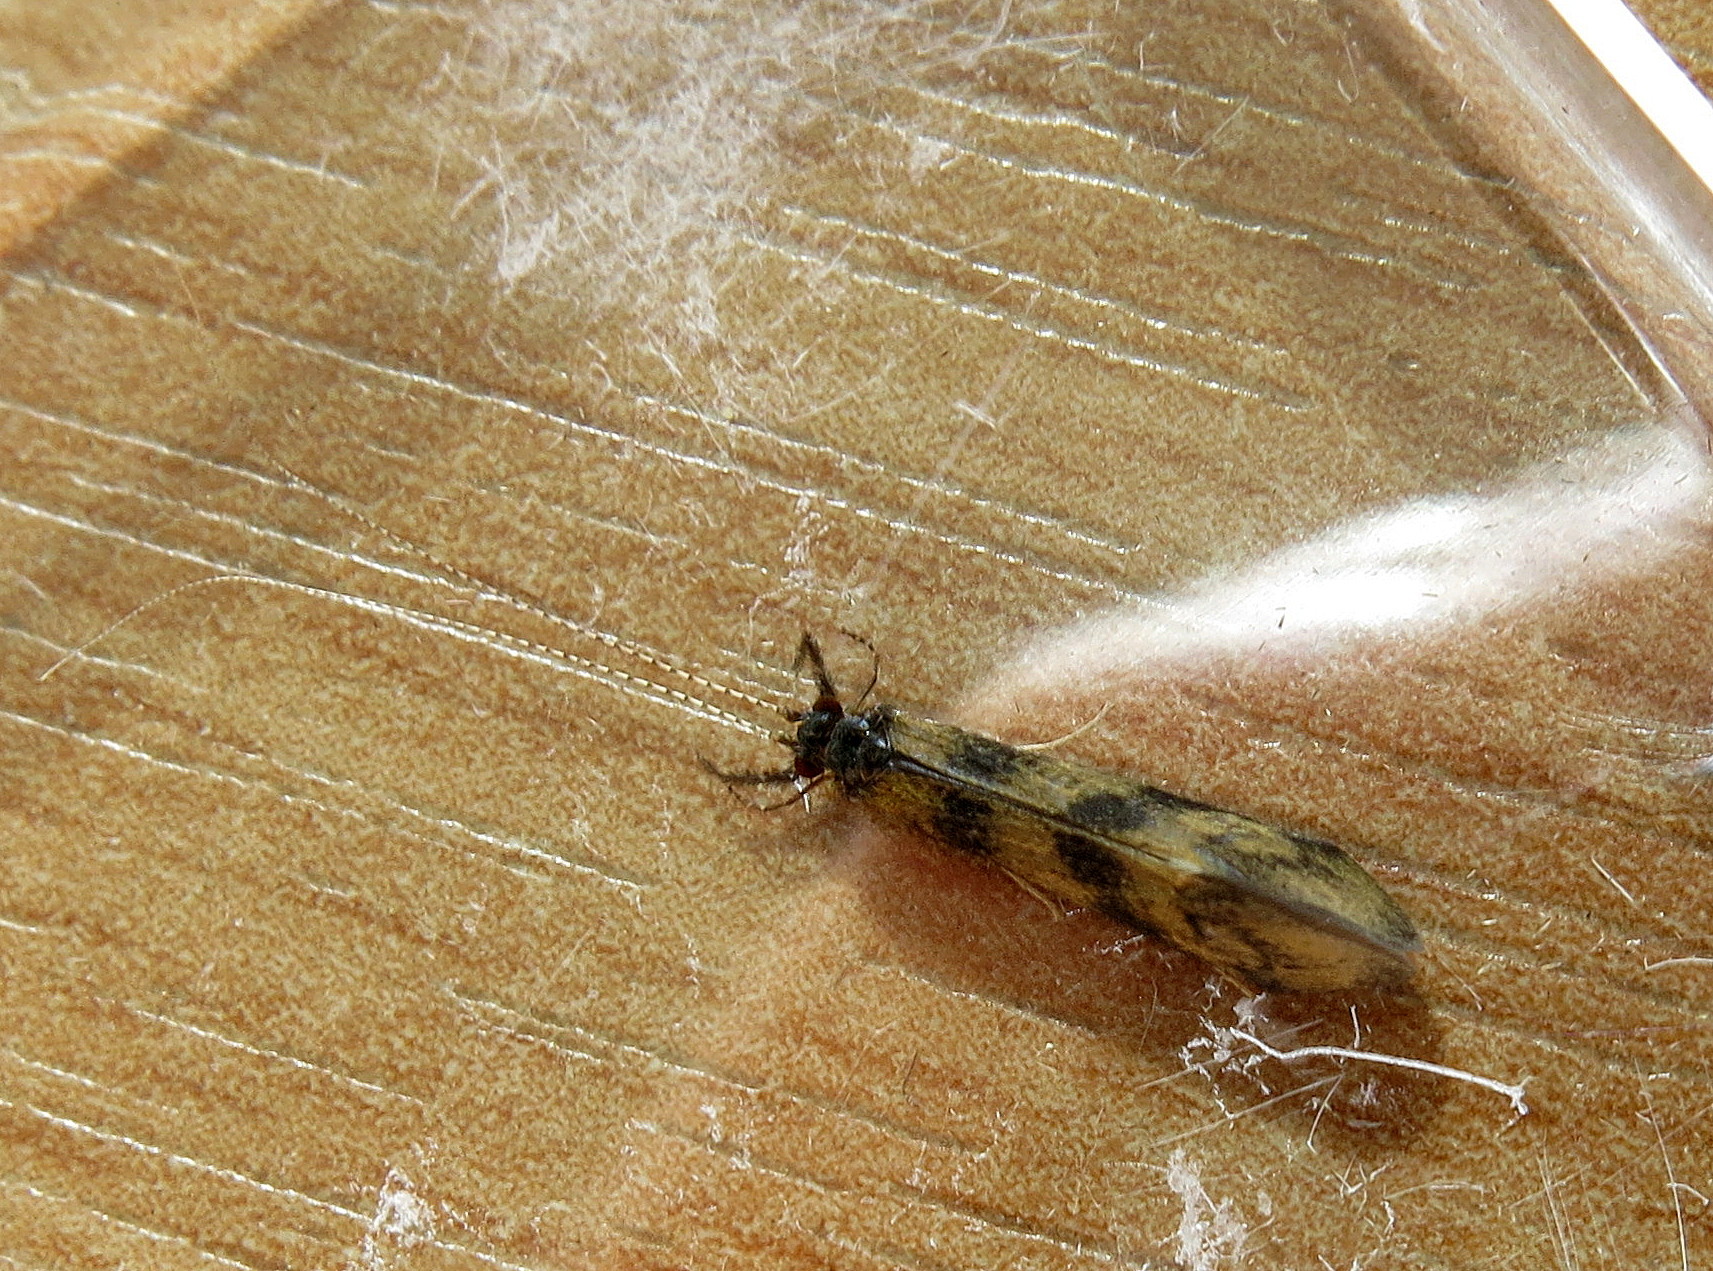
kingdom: Animalia
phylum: Arthropoda
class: Insecta
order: Trichoptera
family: Leptoceridae
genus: Mystacides
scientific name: Mystacides longicornis
